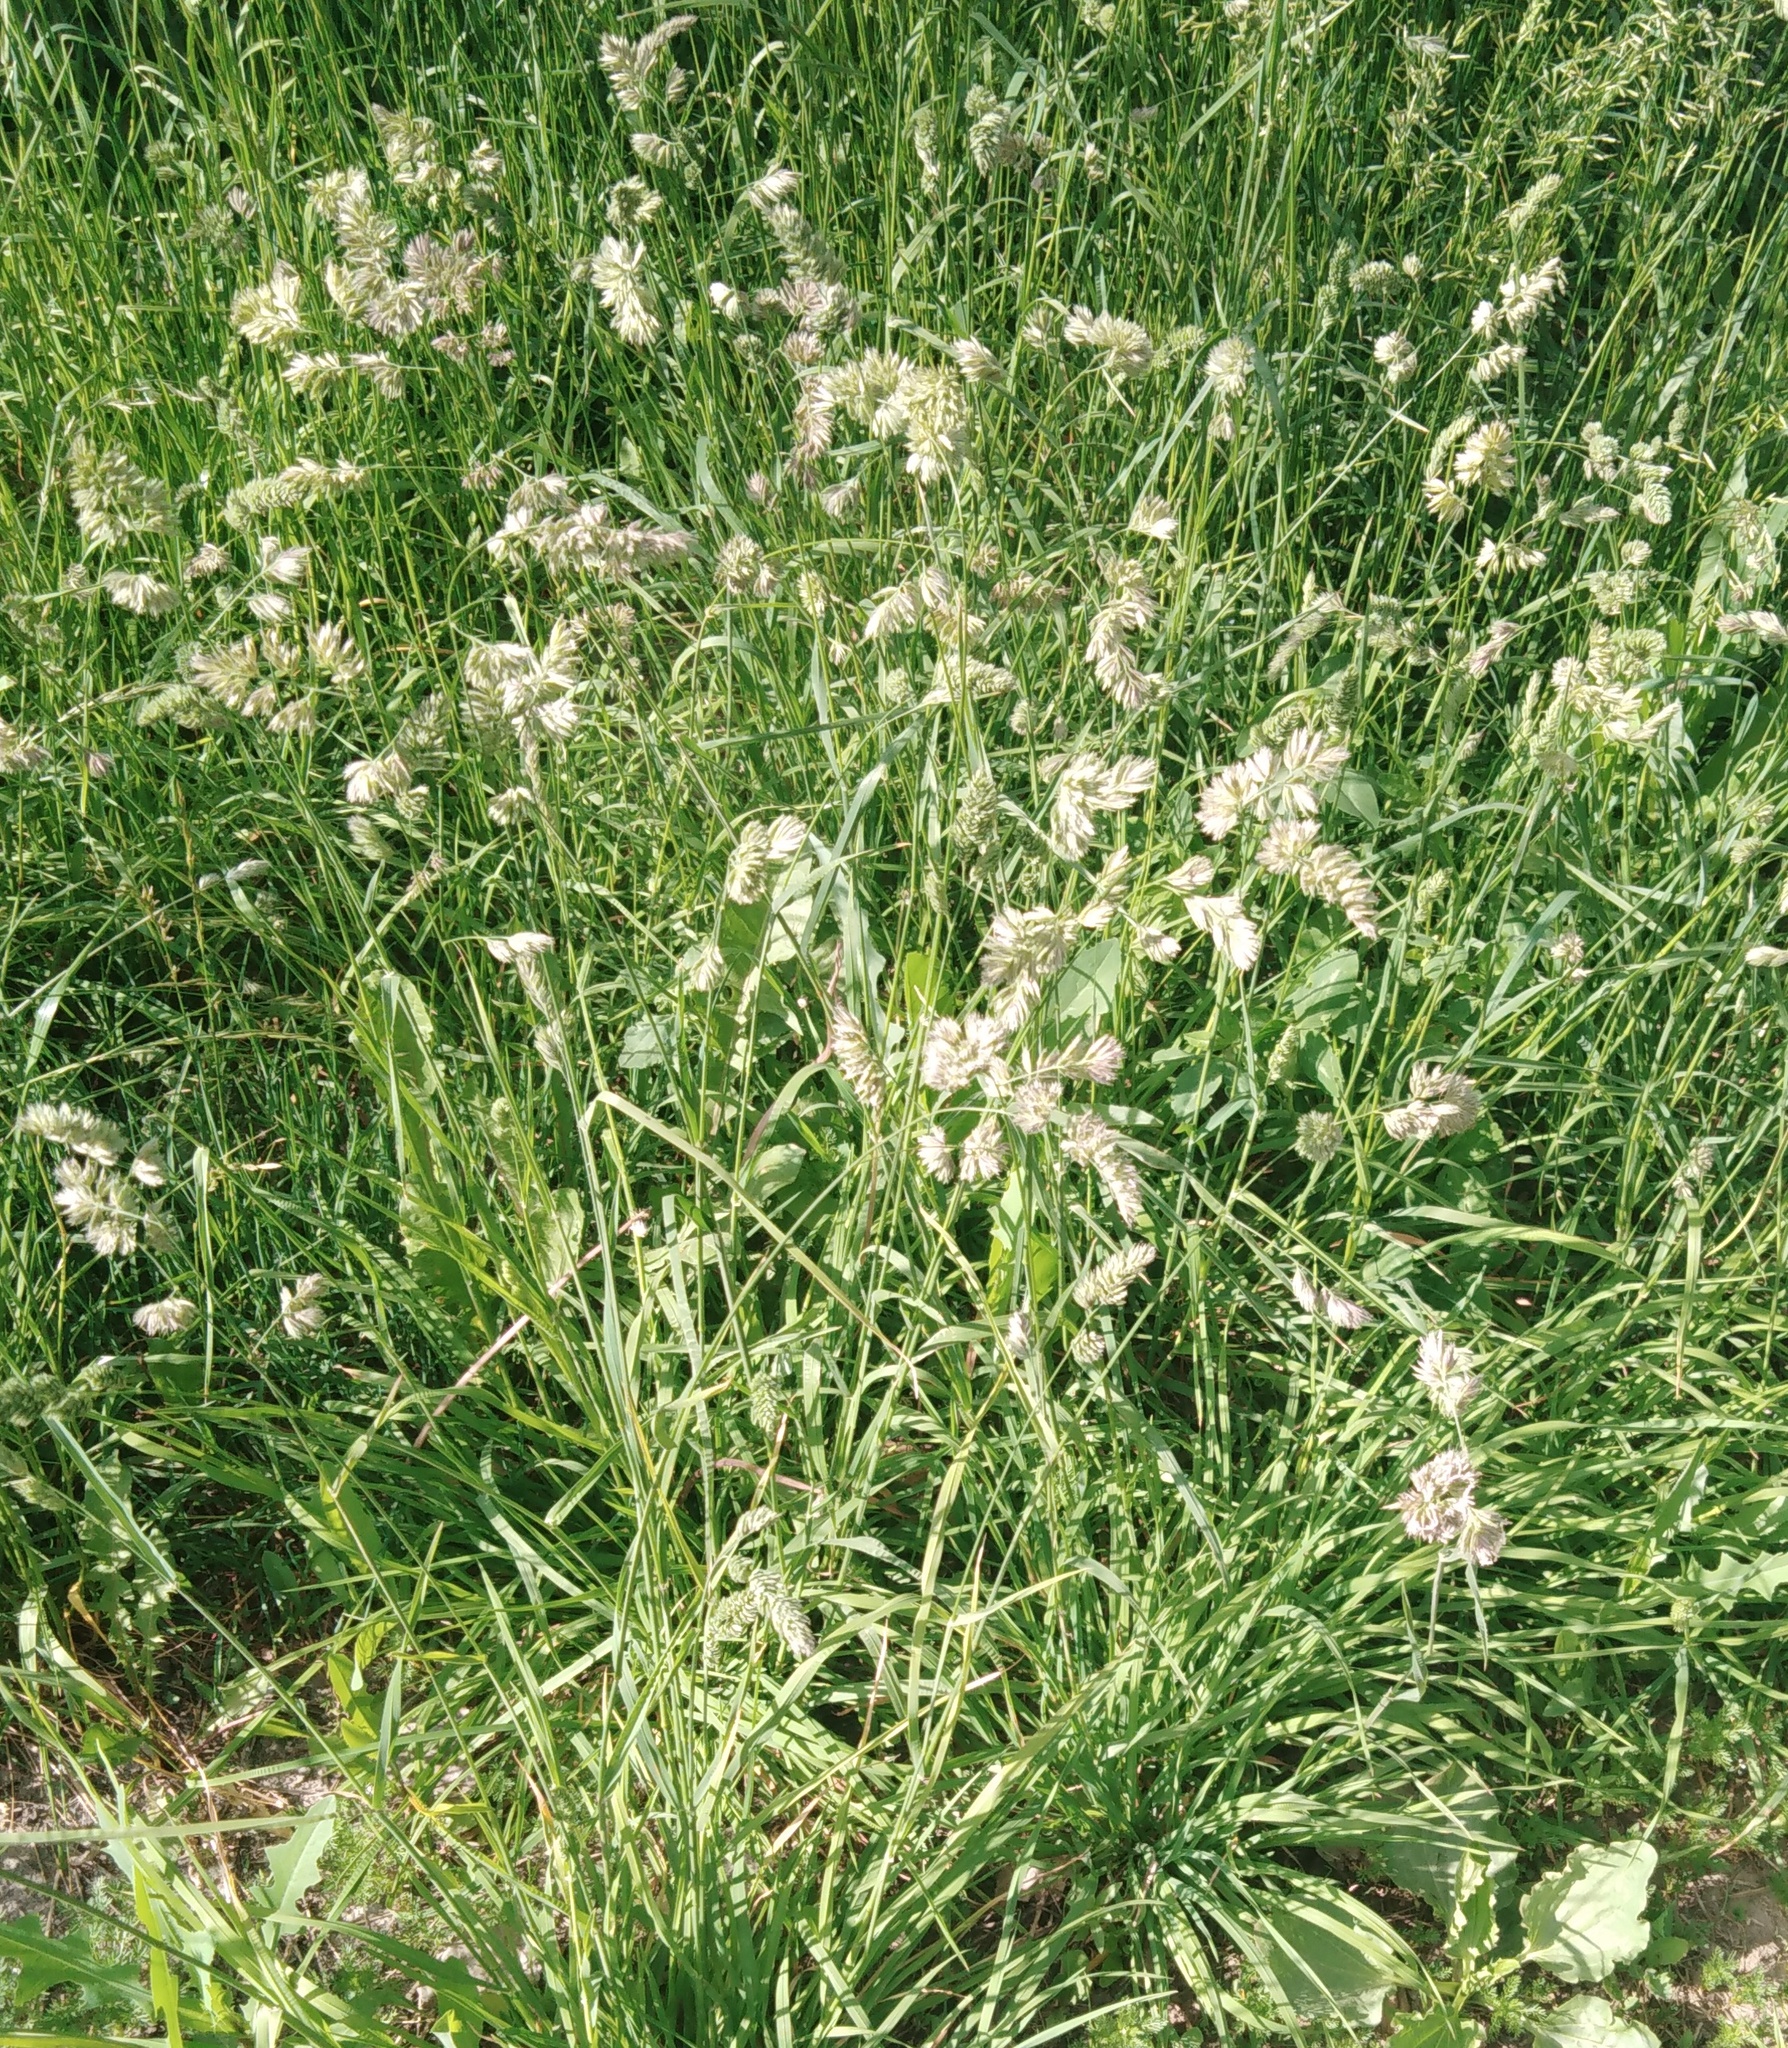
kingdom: Plantae
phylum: Tracheophyta
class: Liliopsida
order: Poales
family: Poaceae
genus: Dactylis
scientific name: Dactylis glomerata
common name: Orchardgrass
